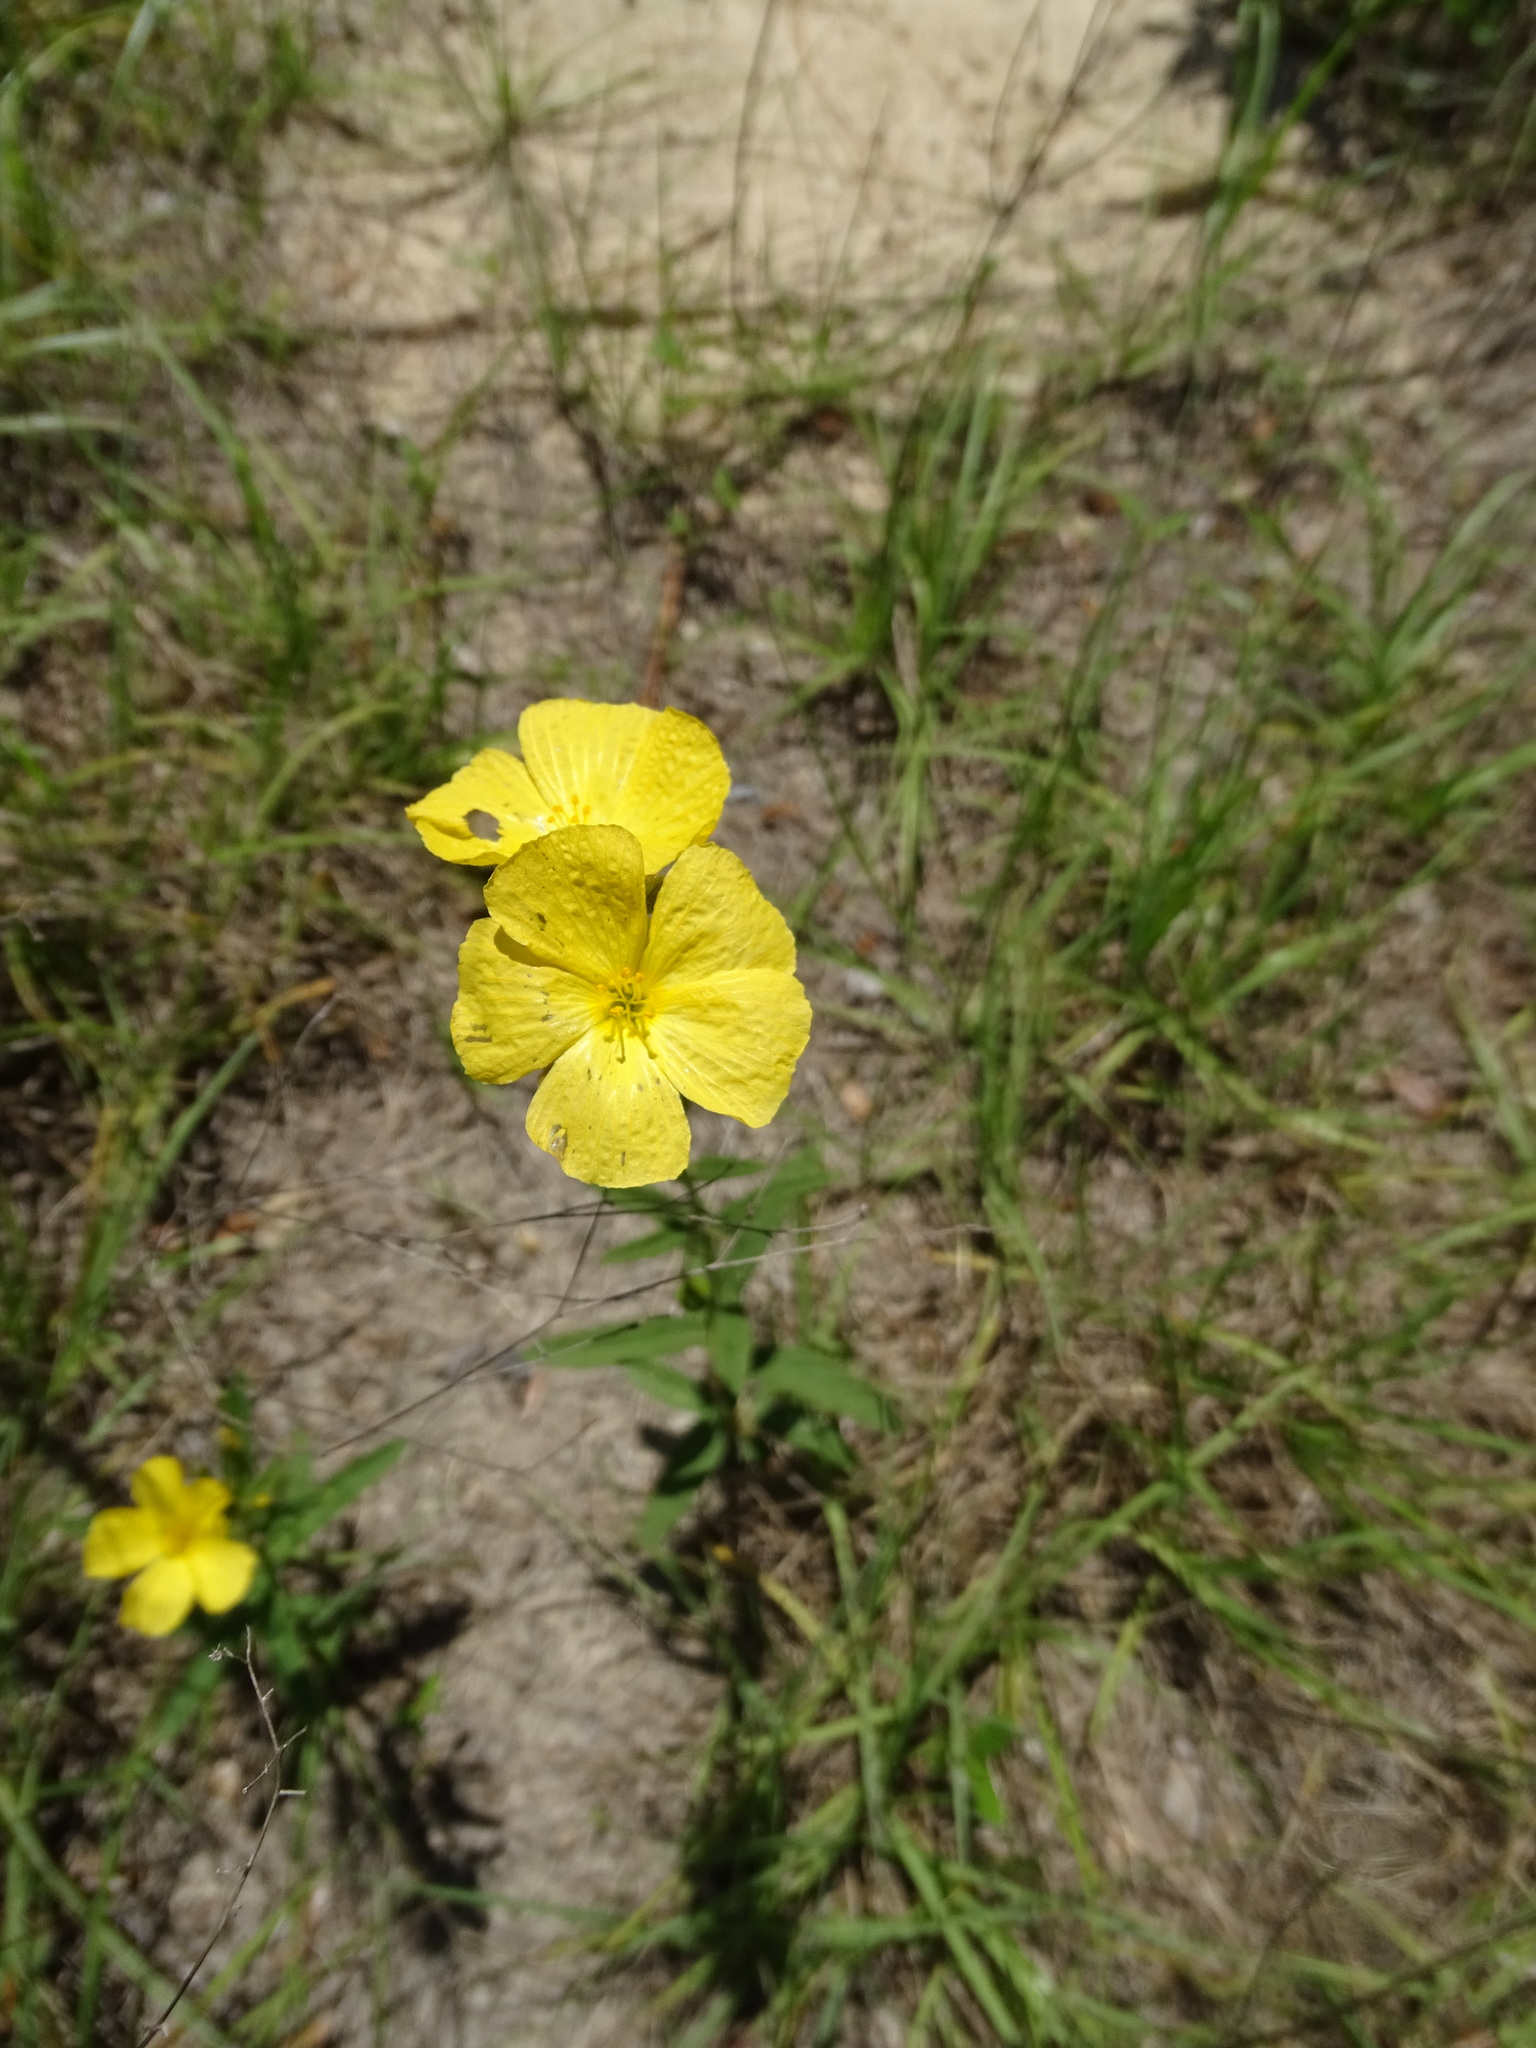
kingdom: Plantae
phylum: Tracheophyta
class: Magnoliopsida
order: Malpighiales
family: Turneraceae
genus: Piriqueta
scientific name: Piriqueta cistoides
